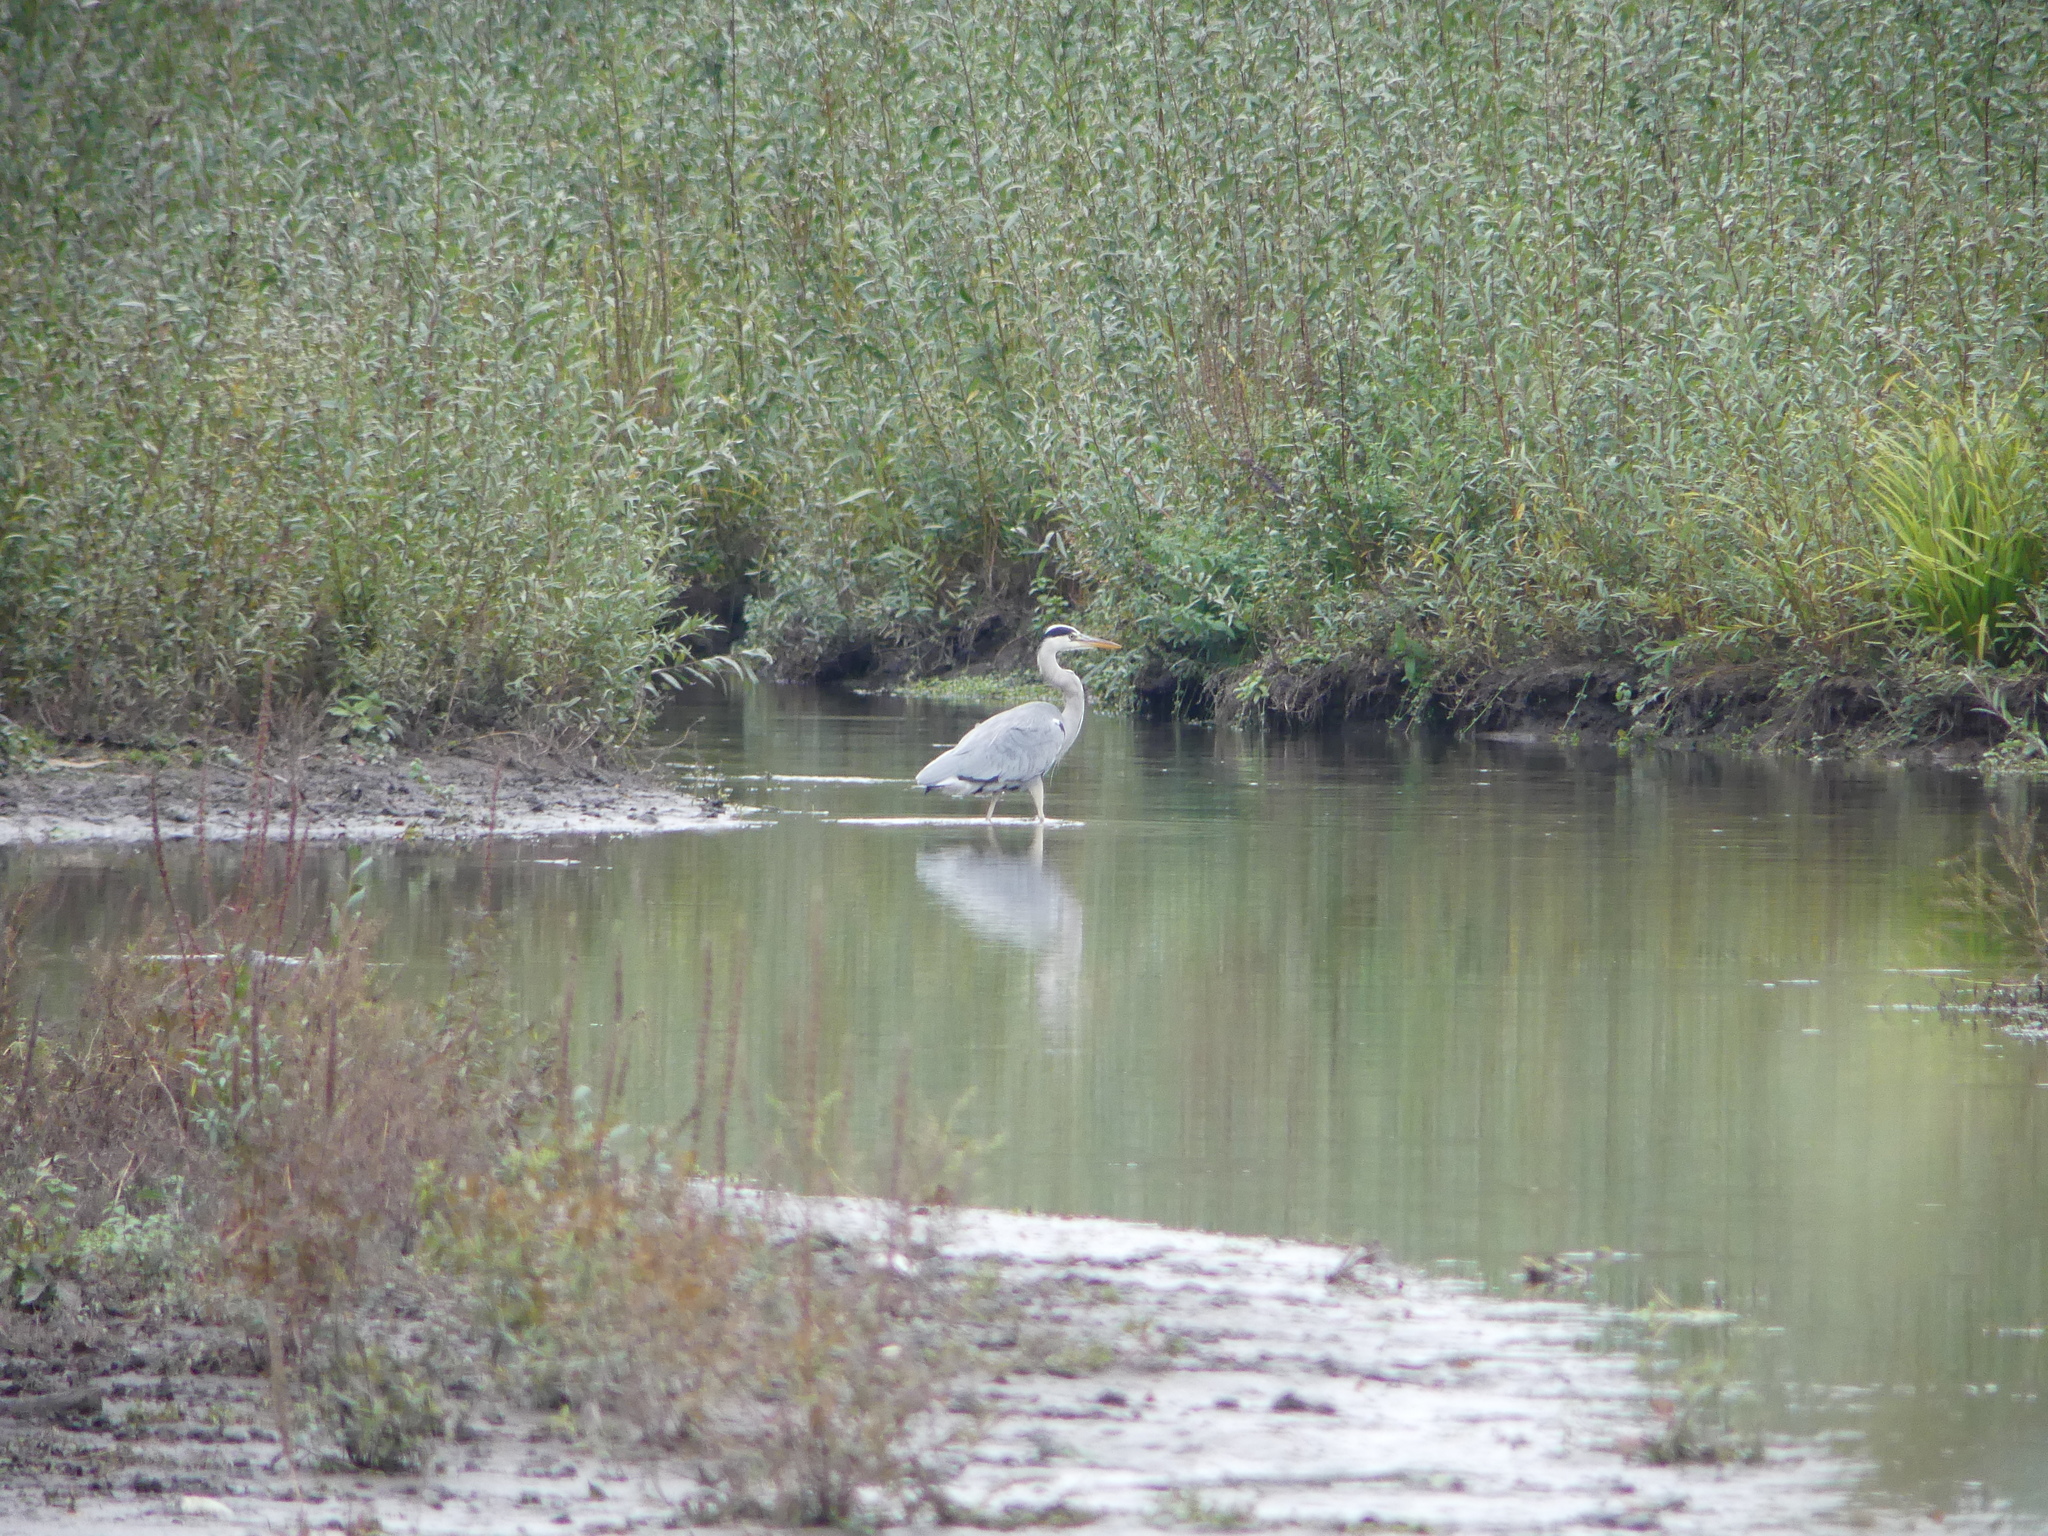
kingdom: Animalia
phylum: Chordata
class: Aves
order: Pelecaniformes
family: Ardeidae
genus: Ardea
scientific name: Ardea cinerea
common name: Grey heron
